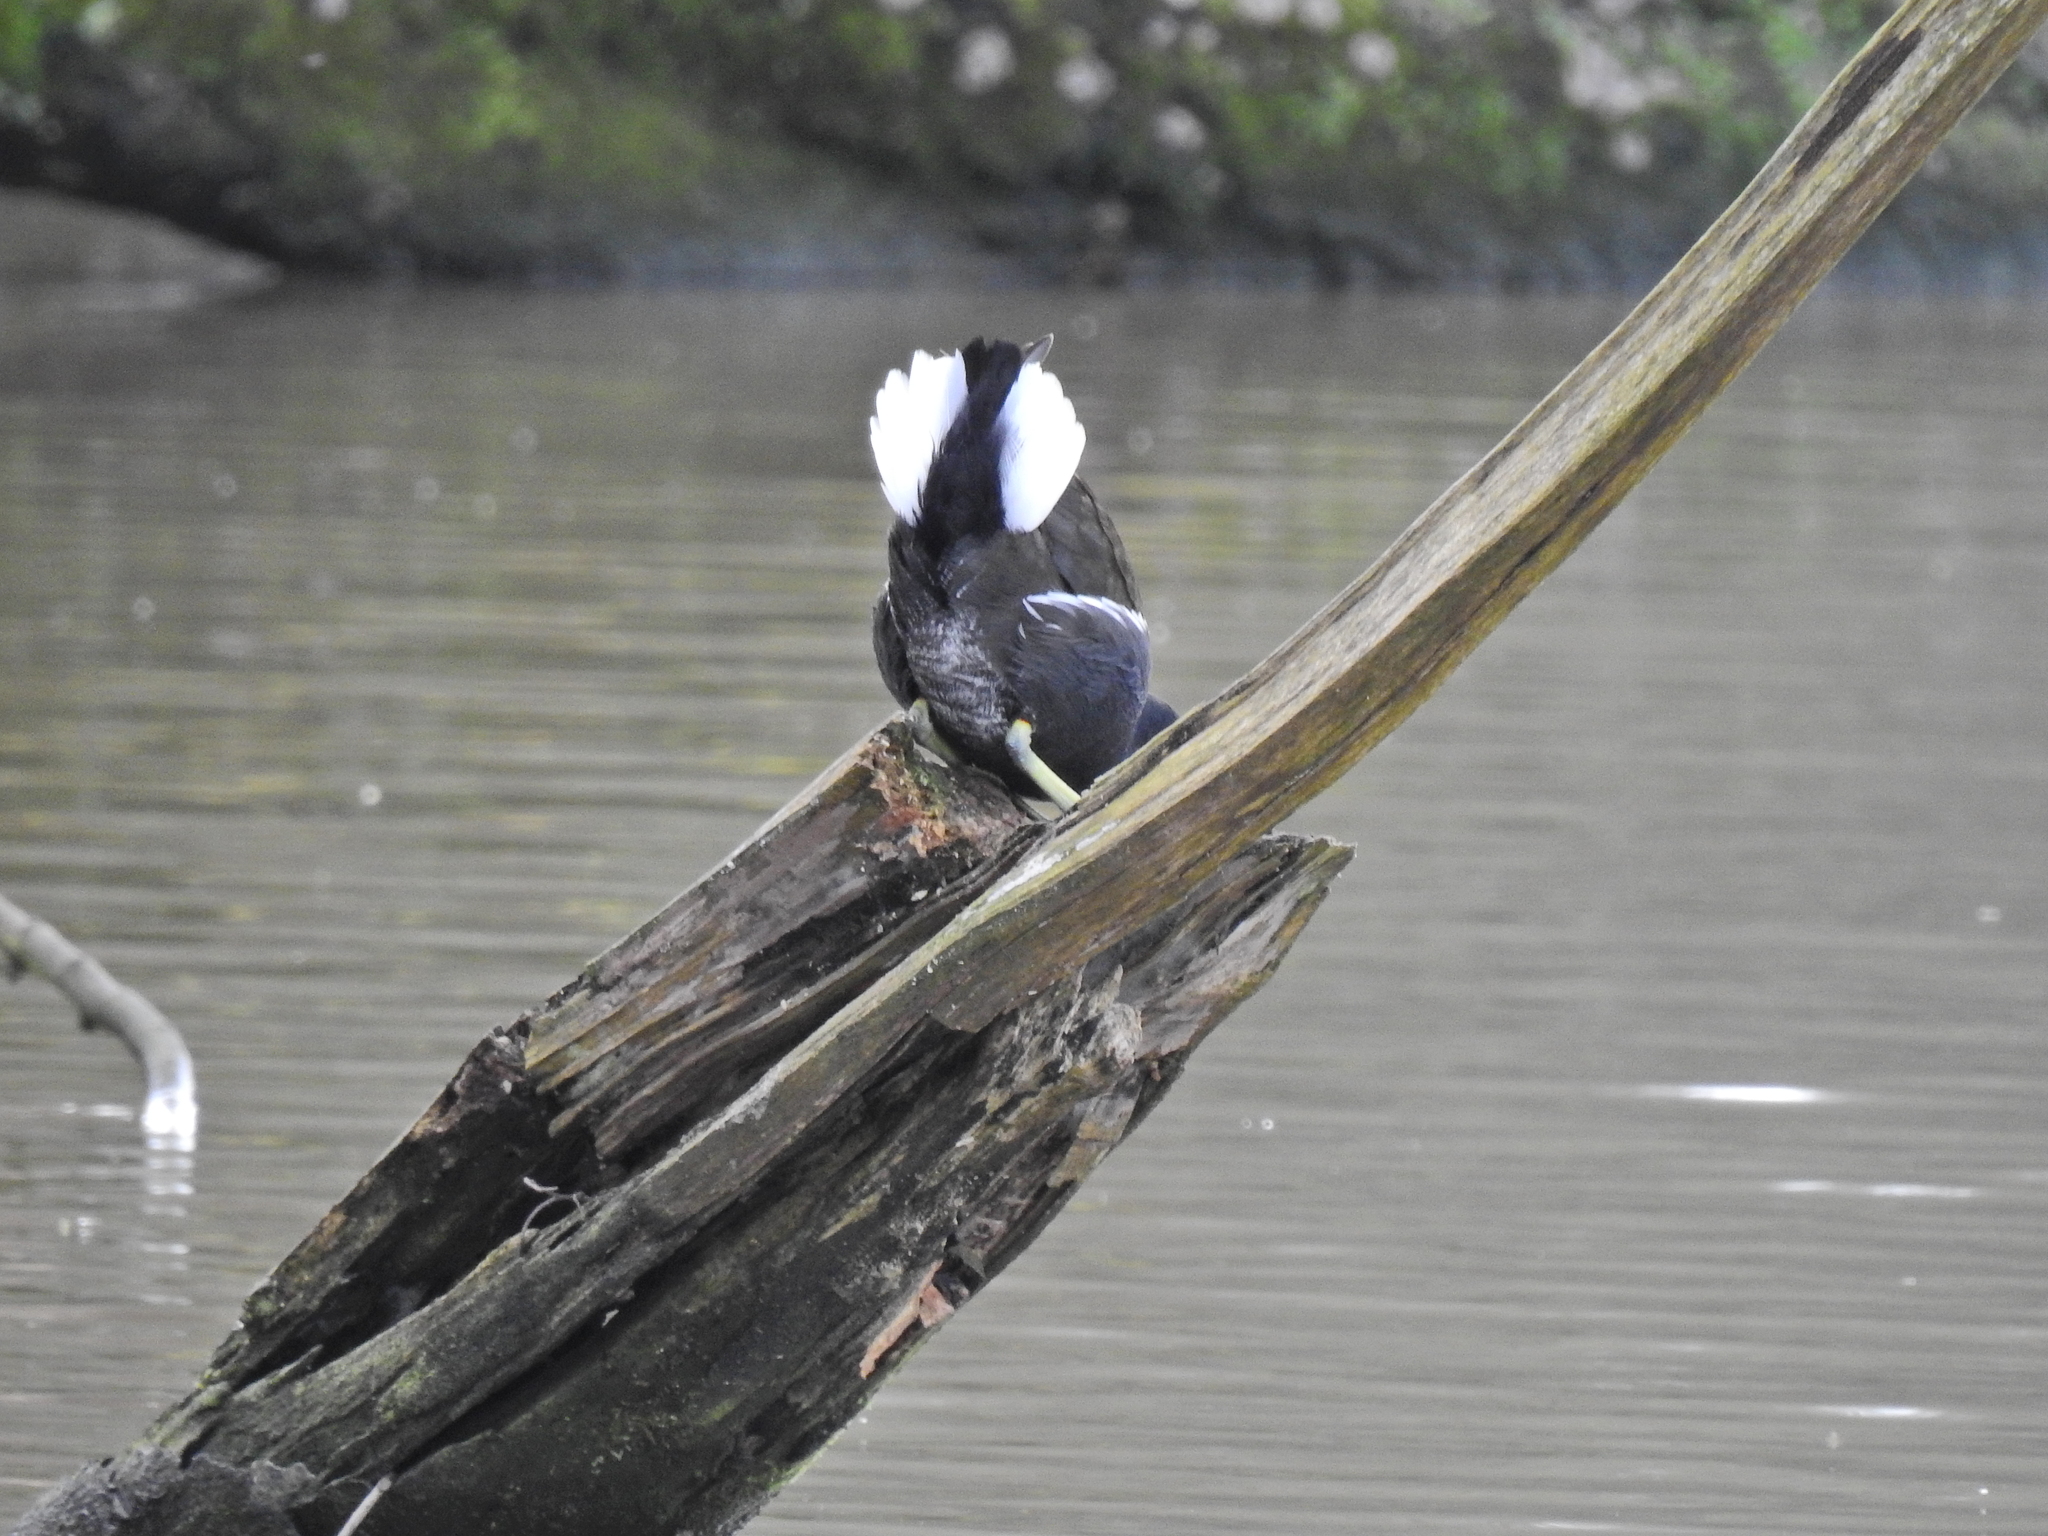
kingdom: Animalia
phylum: Chordata
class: Aves
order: Gruiformes
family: Rallidae
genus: Gallinula
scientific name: Gallinula chloropus
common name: Common moorhen
